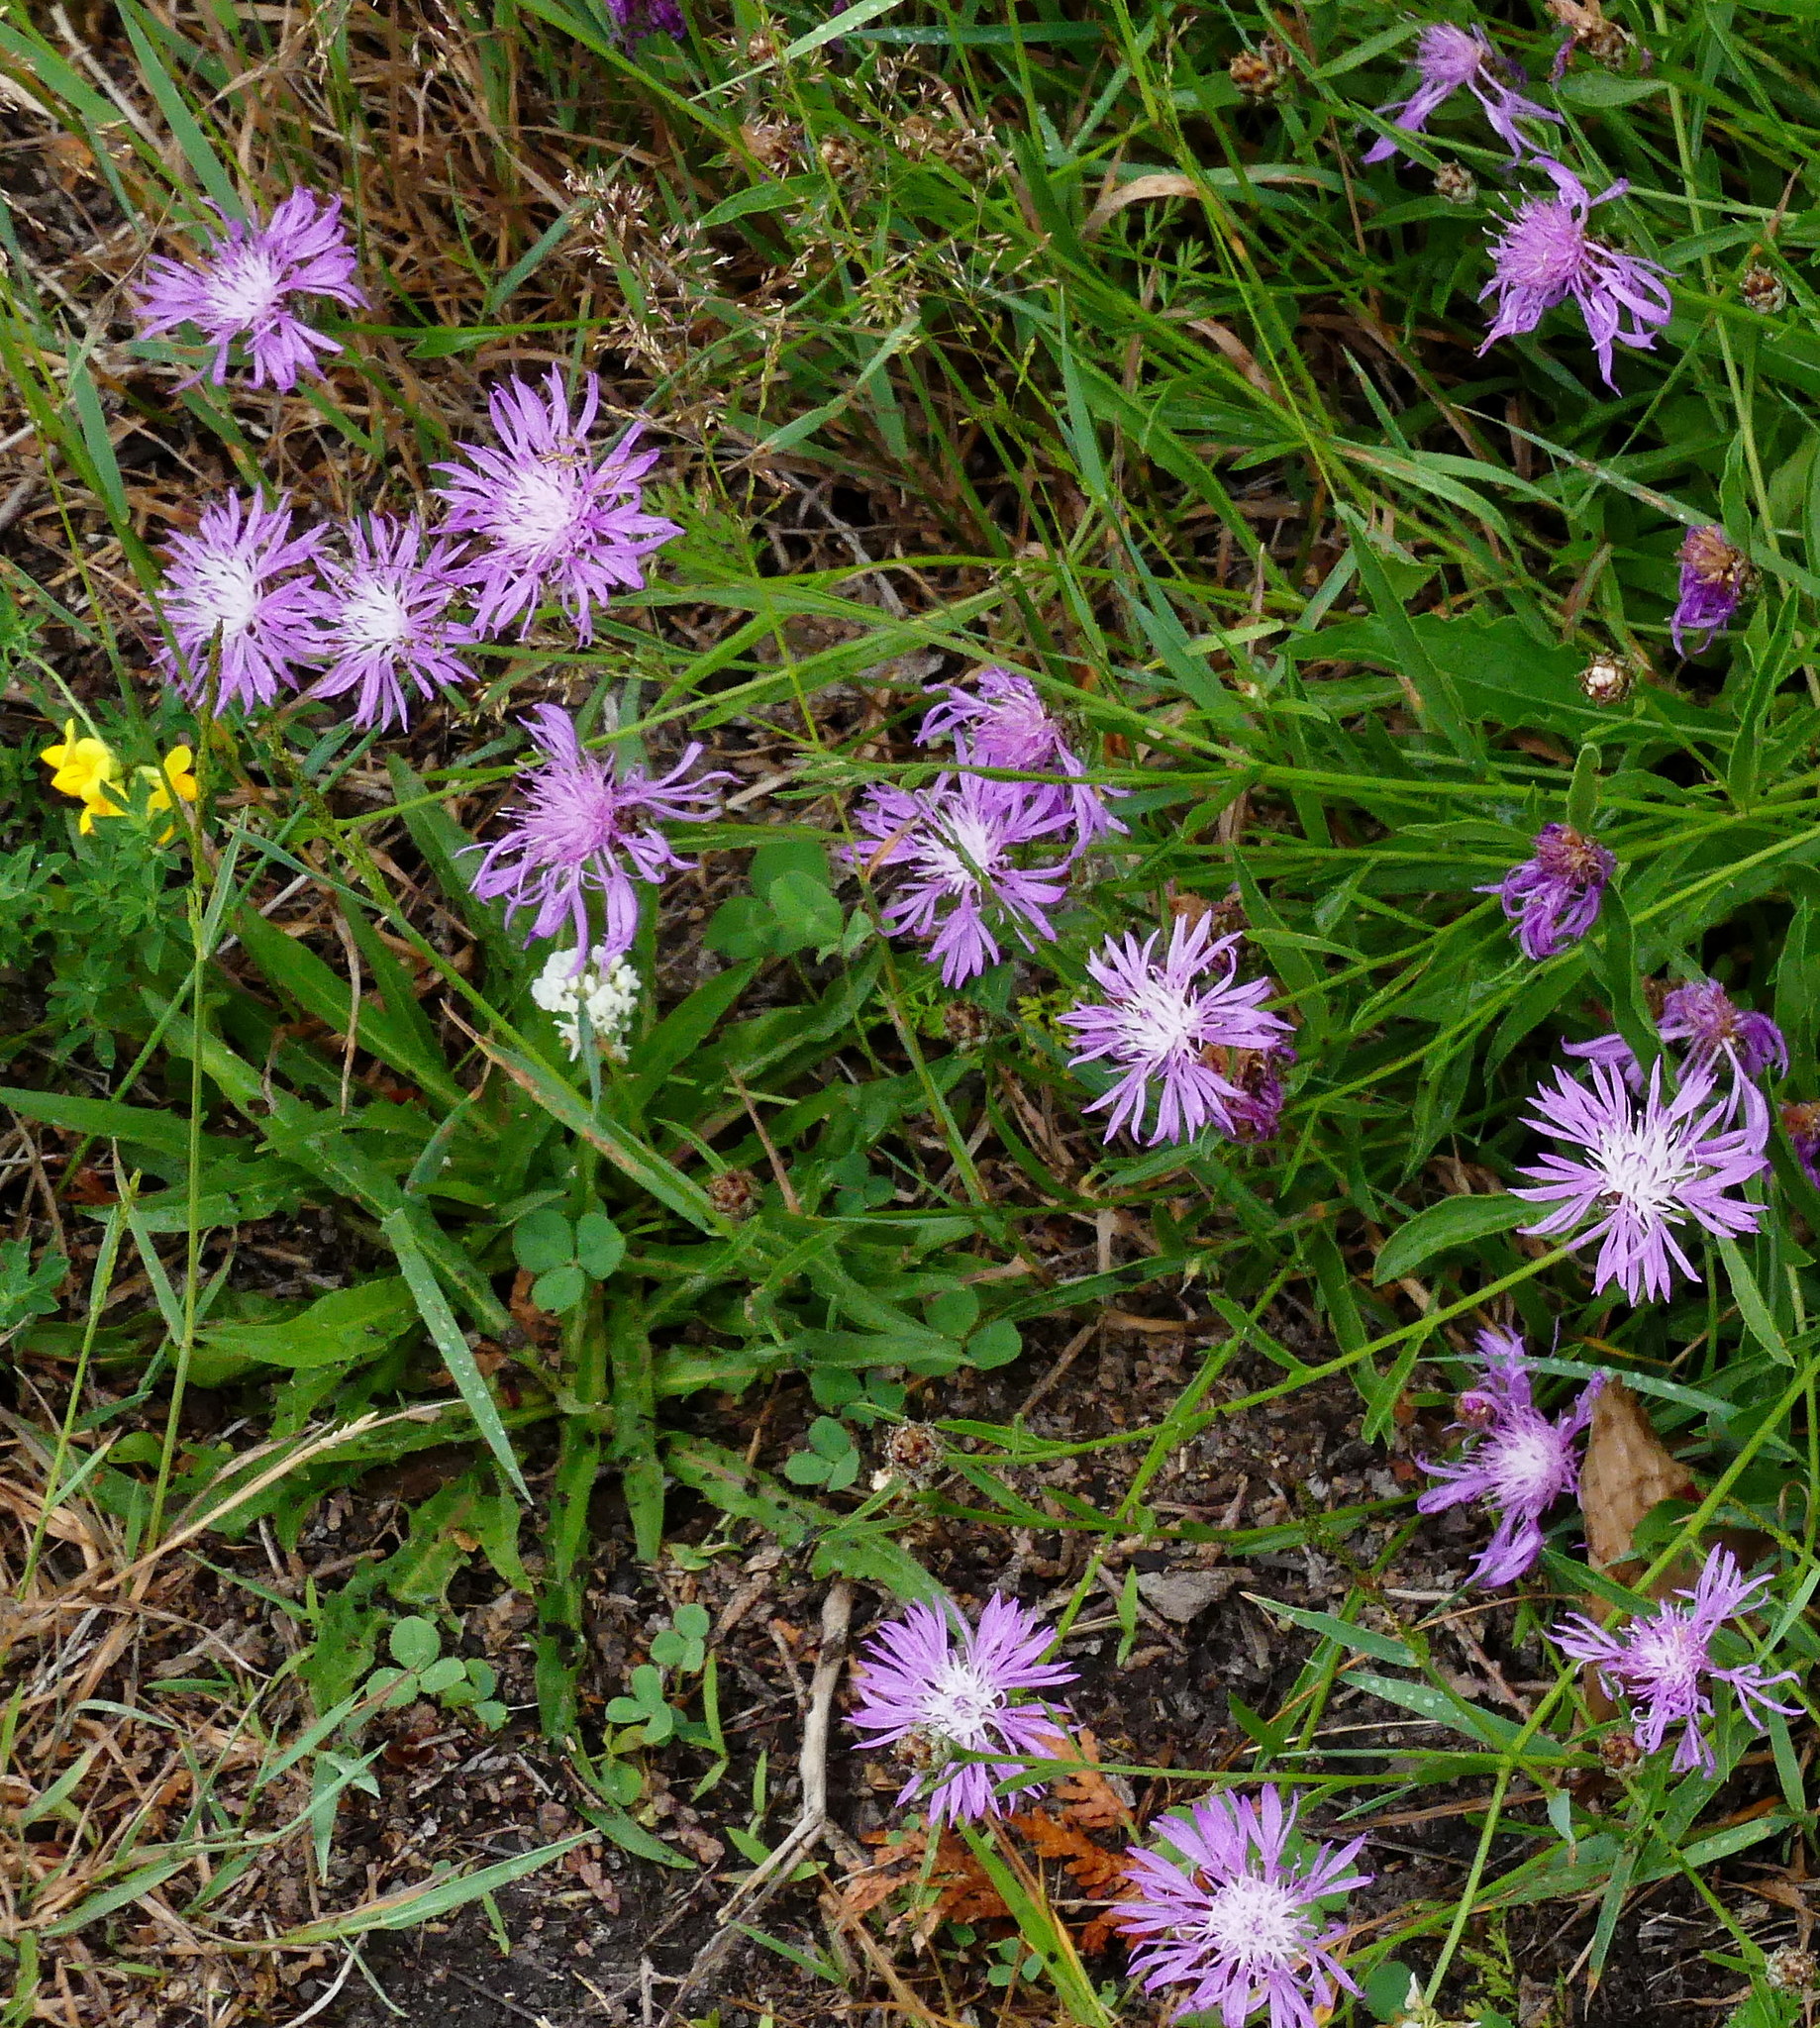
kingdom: Plantae
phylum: Tracheophyta
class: Magnoliopsida
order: Asterales
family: Asteraceae
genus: Centaurea
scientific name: Centaurea moncktonii
